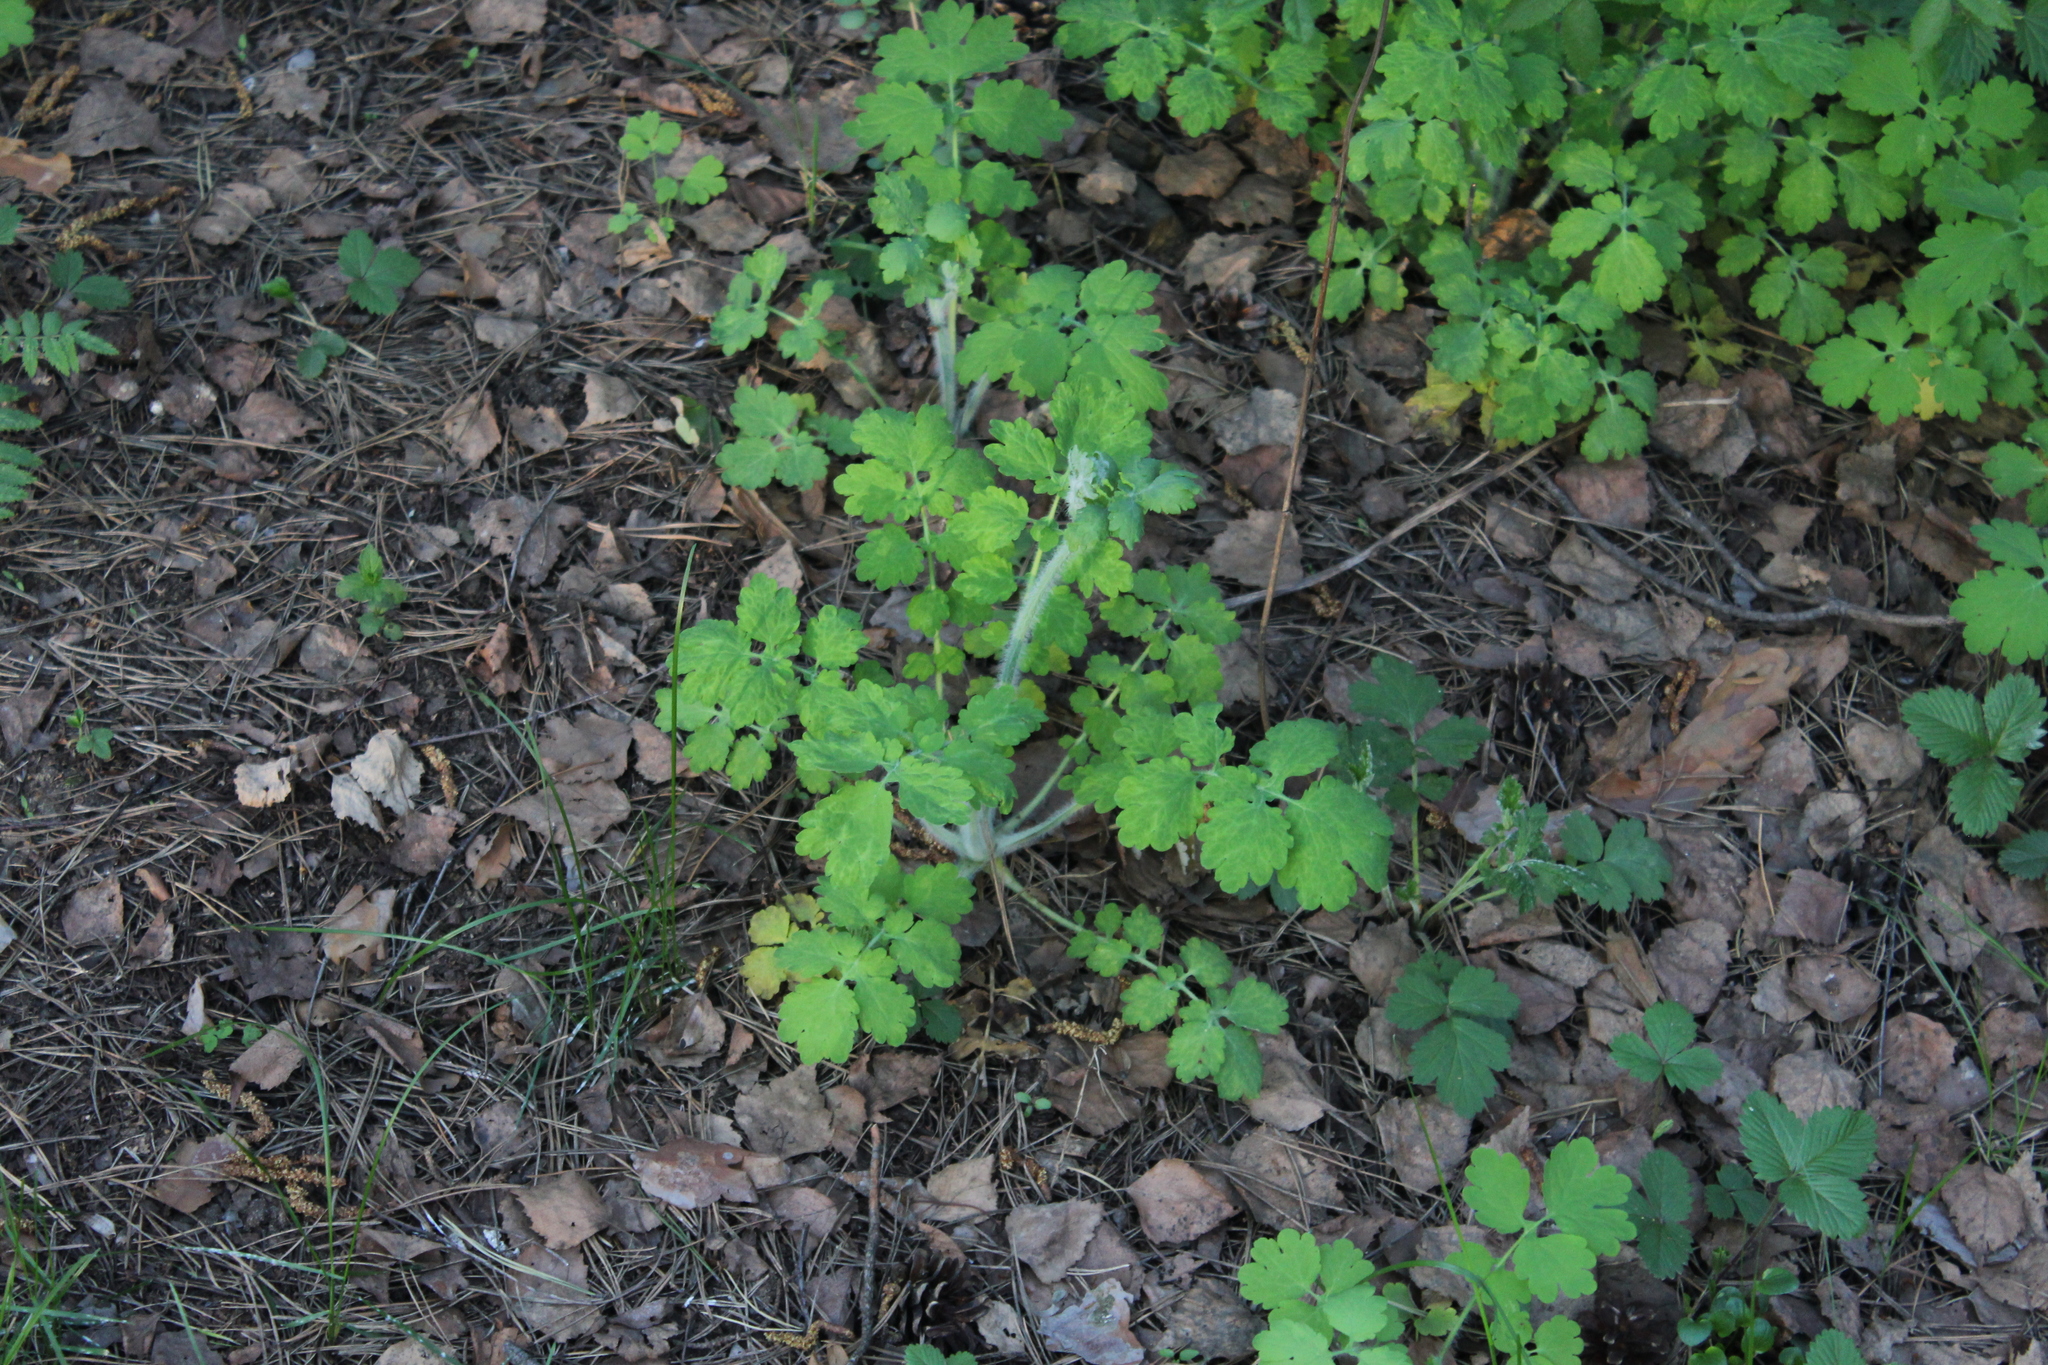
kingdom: Plantae
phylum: Tracheophyta
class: Magnoliopsida
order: Ranunculales
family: Papaveraceae
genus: Chelidonium
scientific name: Chelidonium majus
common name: Greater celandine
